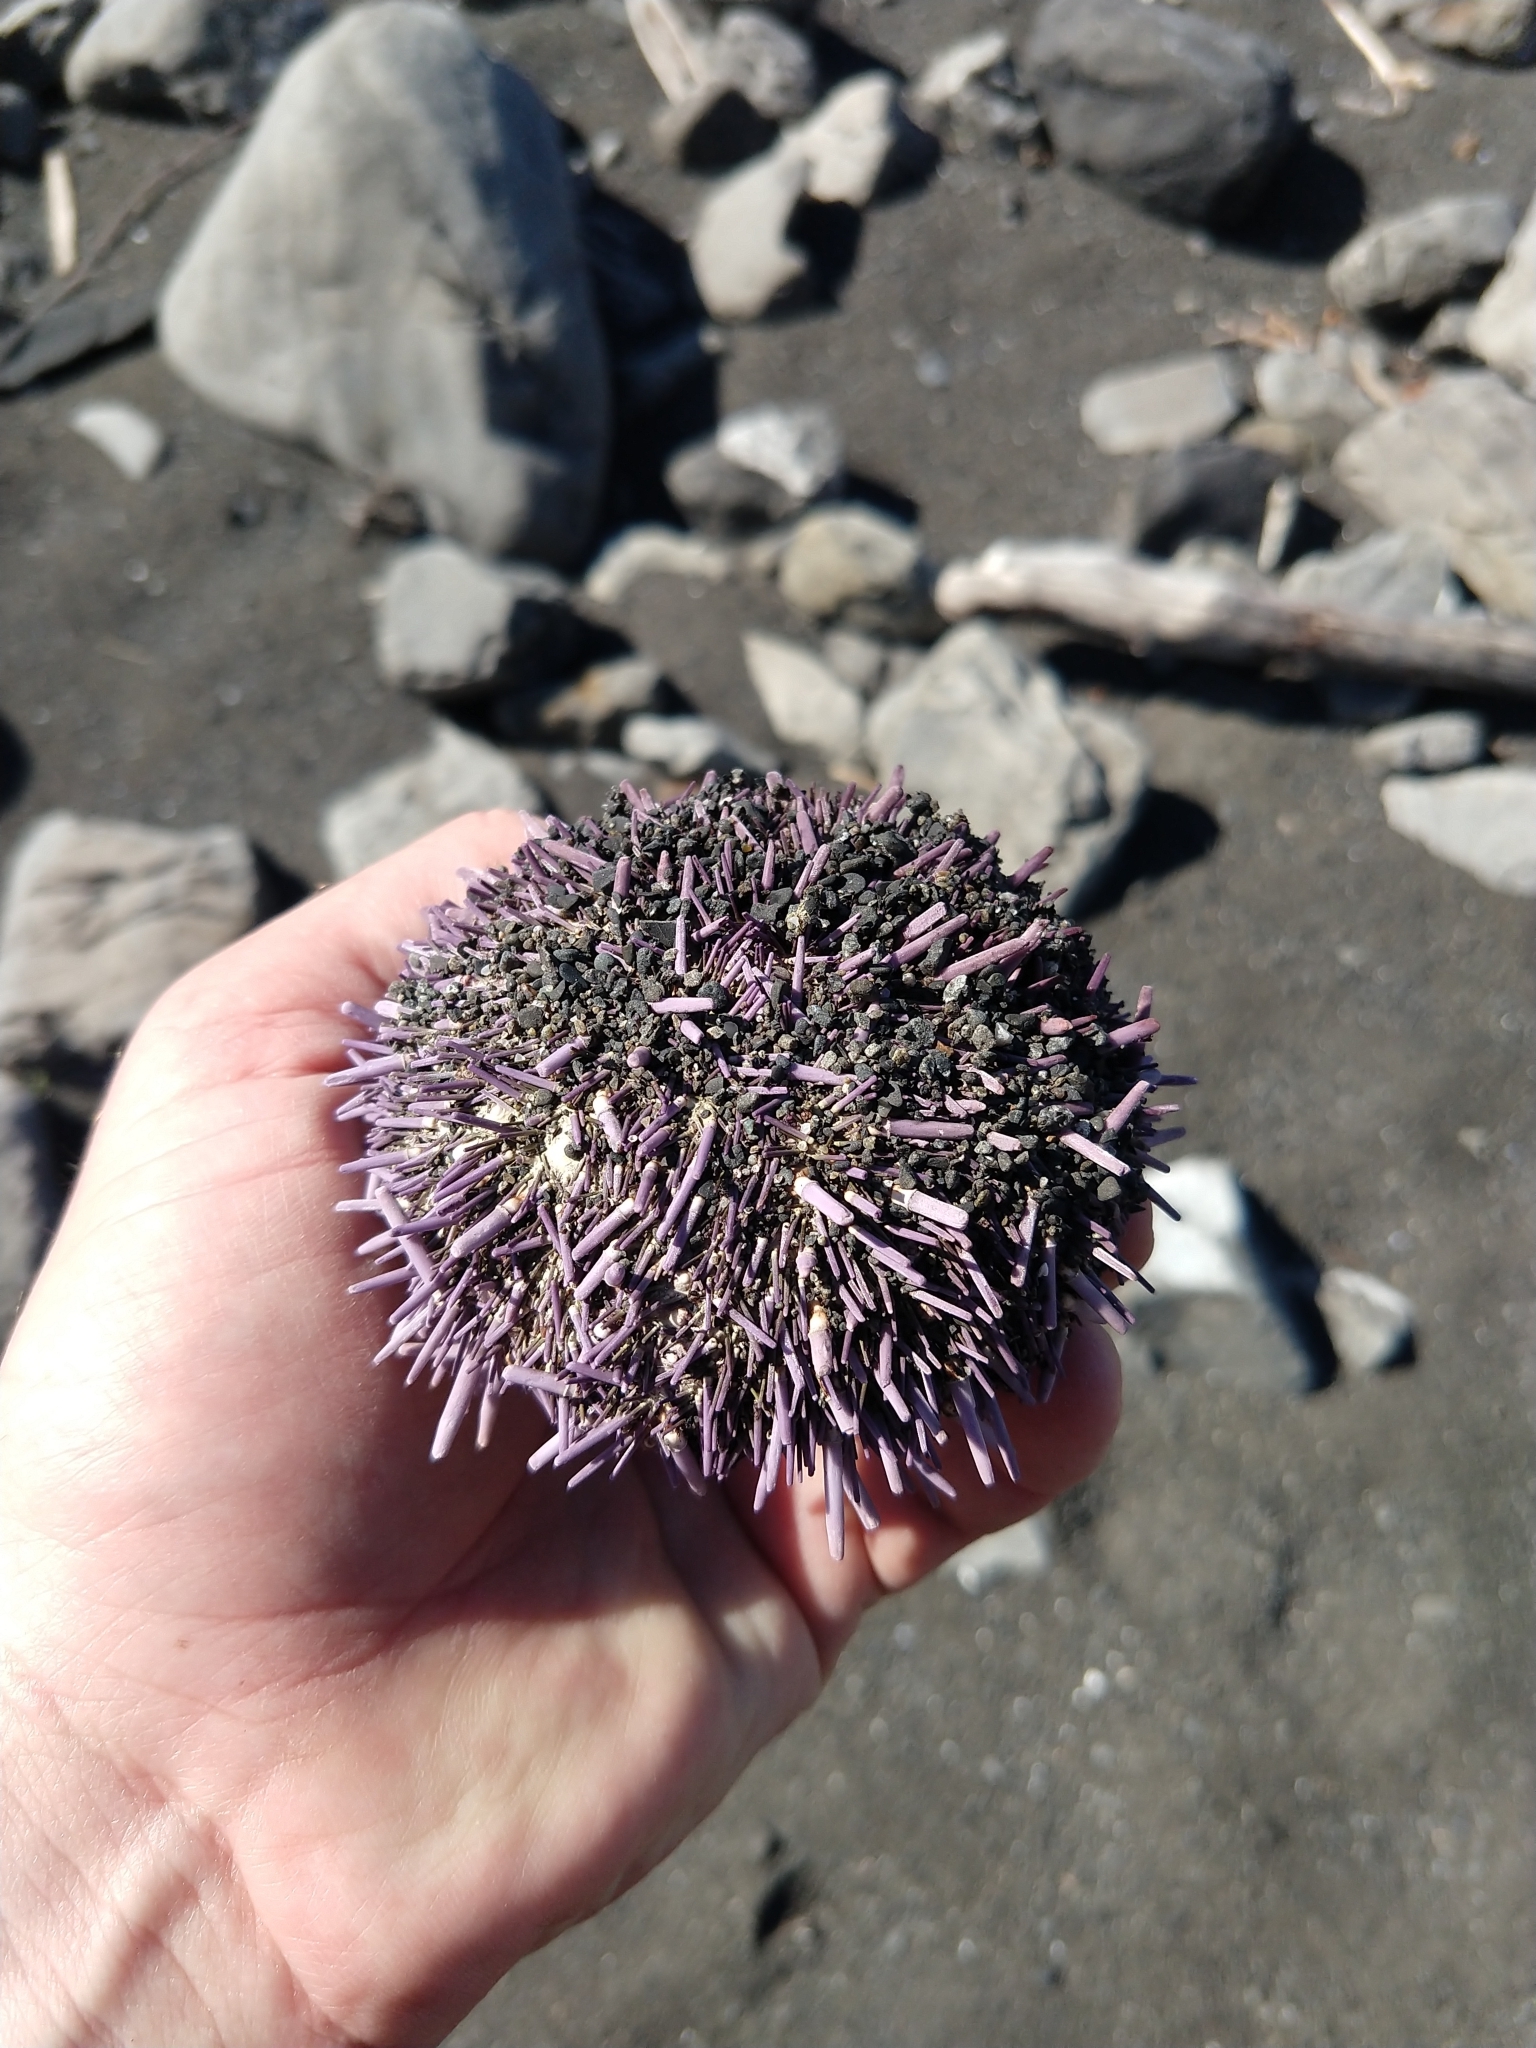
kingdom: Animalia
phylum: Echinodermata
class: Echinoidea
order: Camarodonta
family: Strongylocentrotidae
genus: Strongylocentrotus
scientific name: Strongylocentrotus purpuratus
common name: Purple sea urchin
